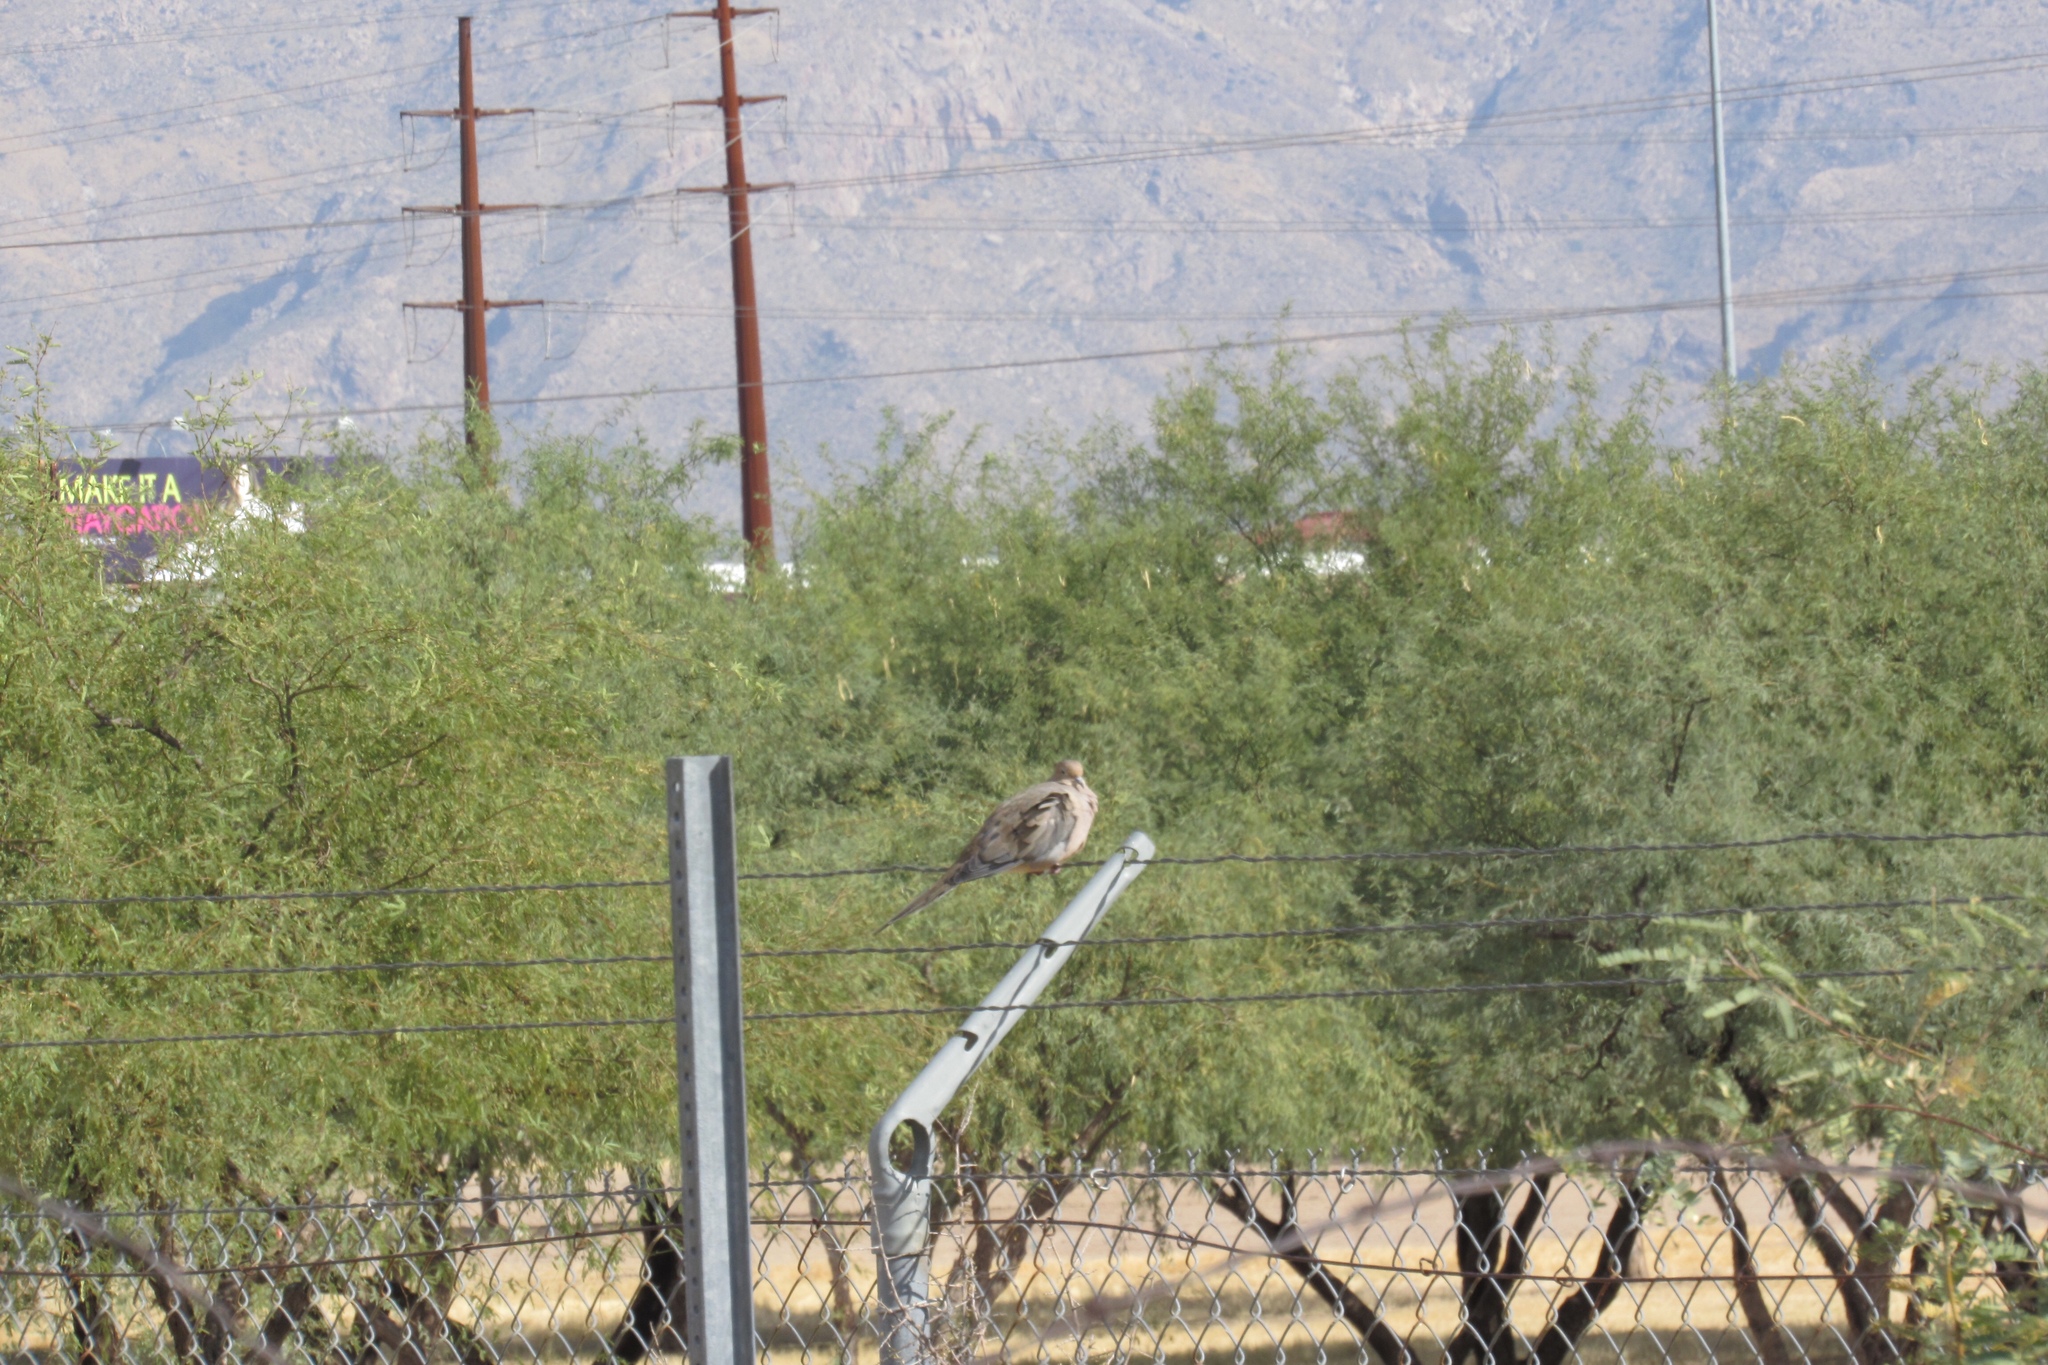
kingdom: Animalia
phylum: Chordata
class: Aves
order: Columbiformes
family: Columbidae
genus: Zenaida
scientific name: Zenaida macroura
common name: Mourning dove
